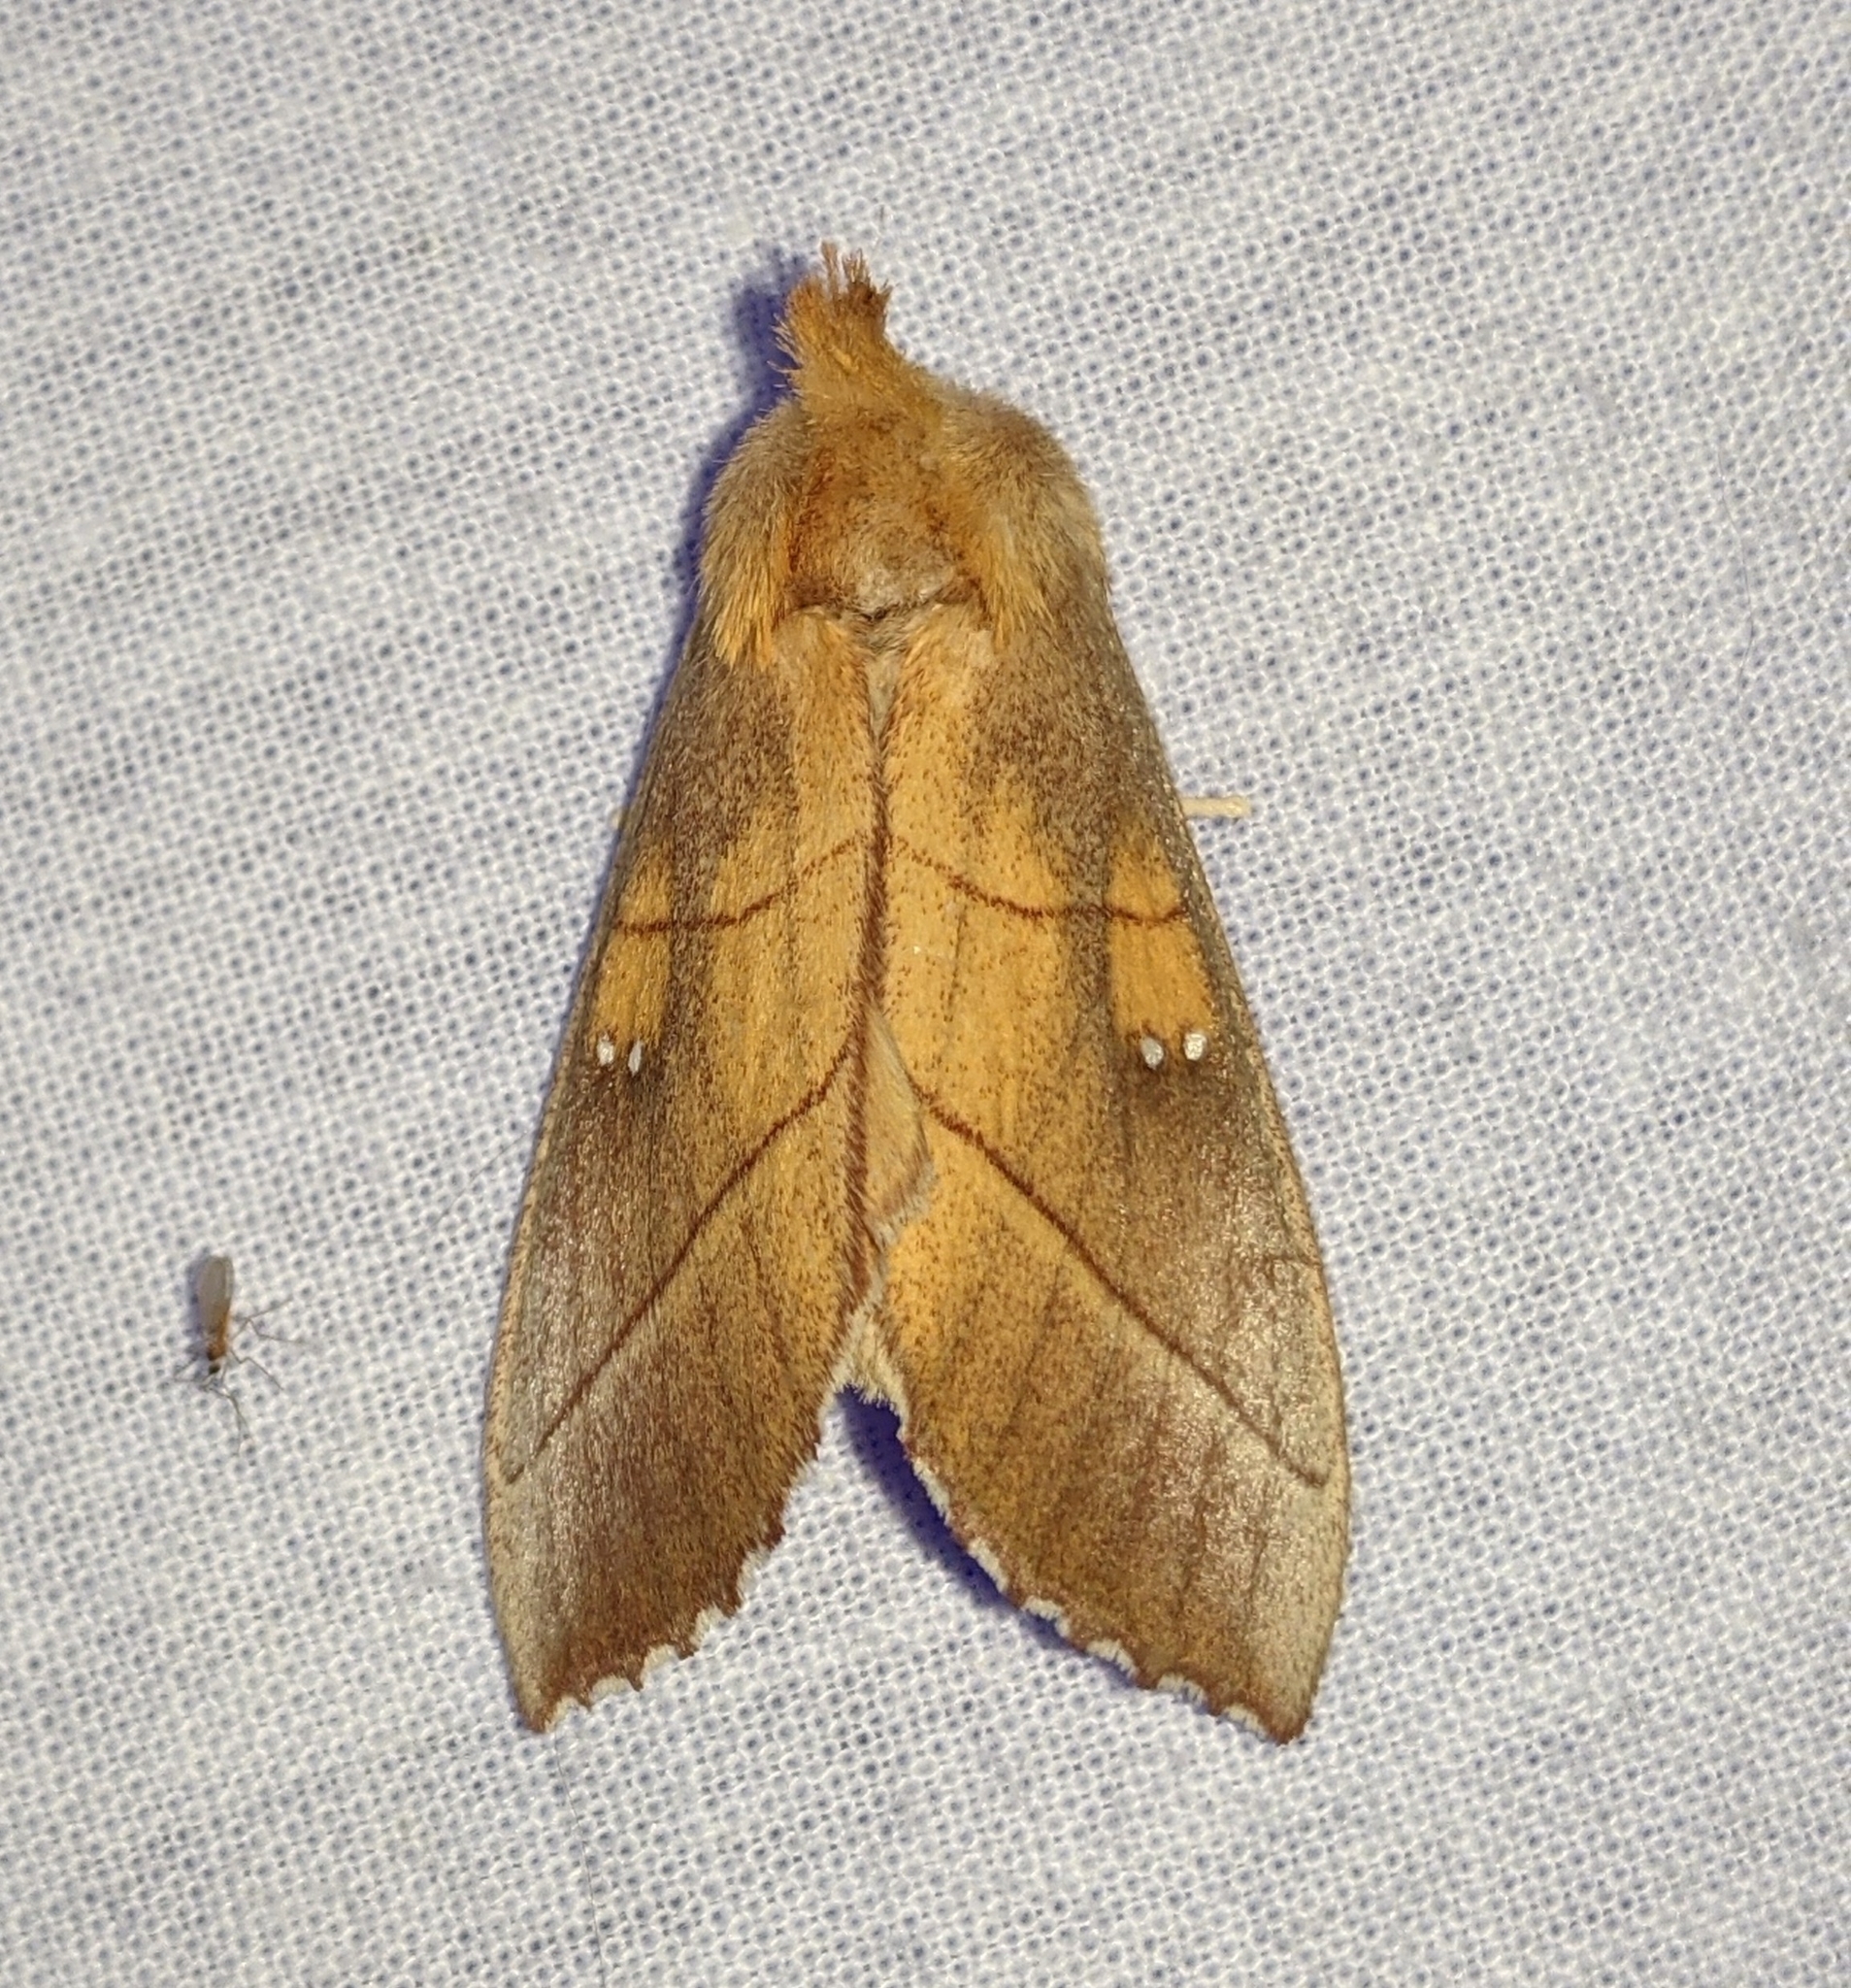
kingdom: Animalia
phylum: Arthropoda
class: Insecta
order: Lepidoptera
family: Notodontidae
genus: Nadata
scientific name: Nadata gibbosa
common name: White-dotted prominent
